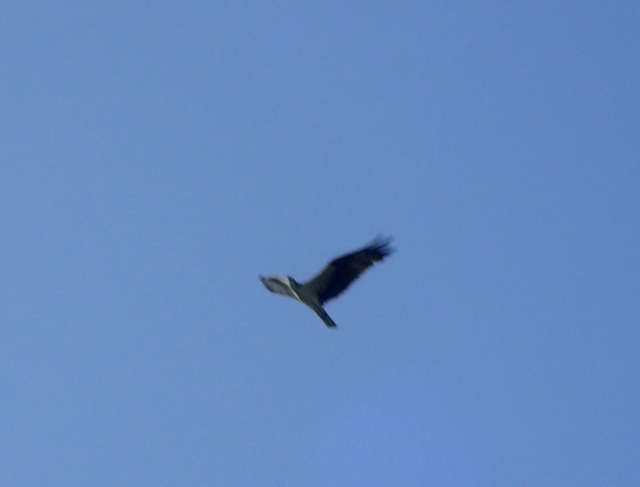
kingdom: Animalia
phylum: Chordata
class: Aves
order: Accipitriformes
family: Pandionidae
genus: Pandion
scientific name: Pandion haliaetus
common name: Osprey
